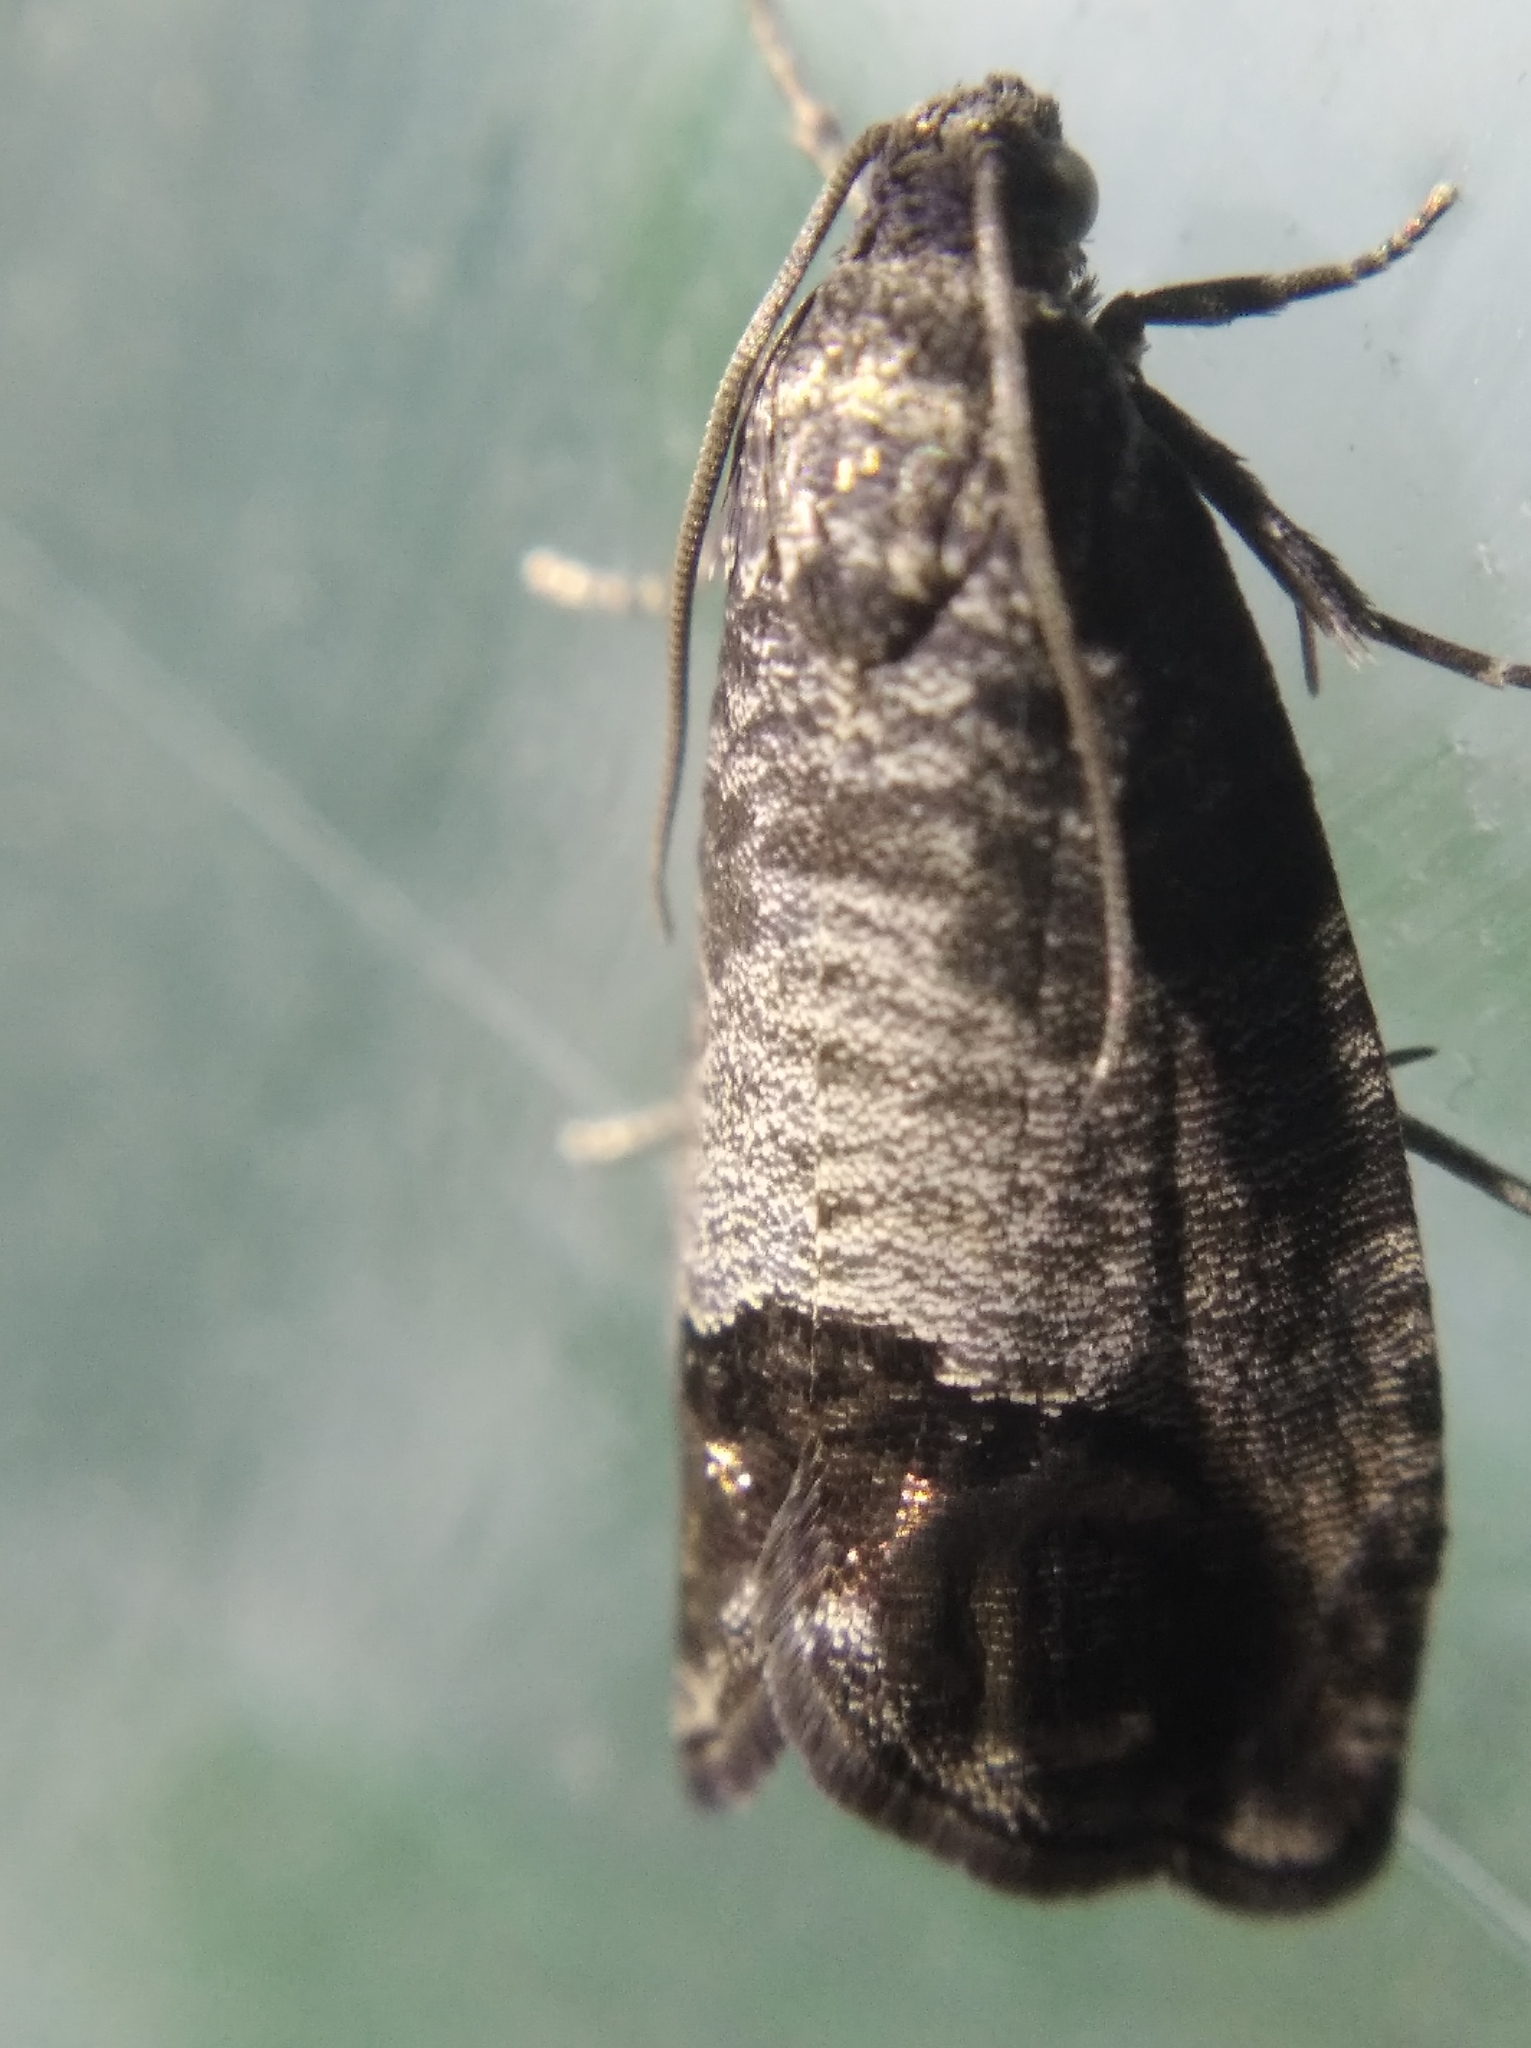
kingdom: Animalia
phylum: Arthropoda
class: Insecta
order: Lepidoptera
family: Tortricidae
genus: Cydia
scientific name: Cydia pomonella
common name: Codling moth
